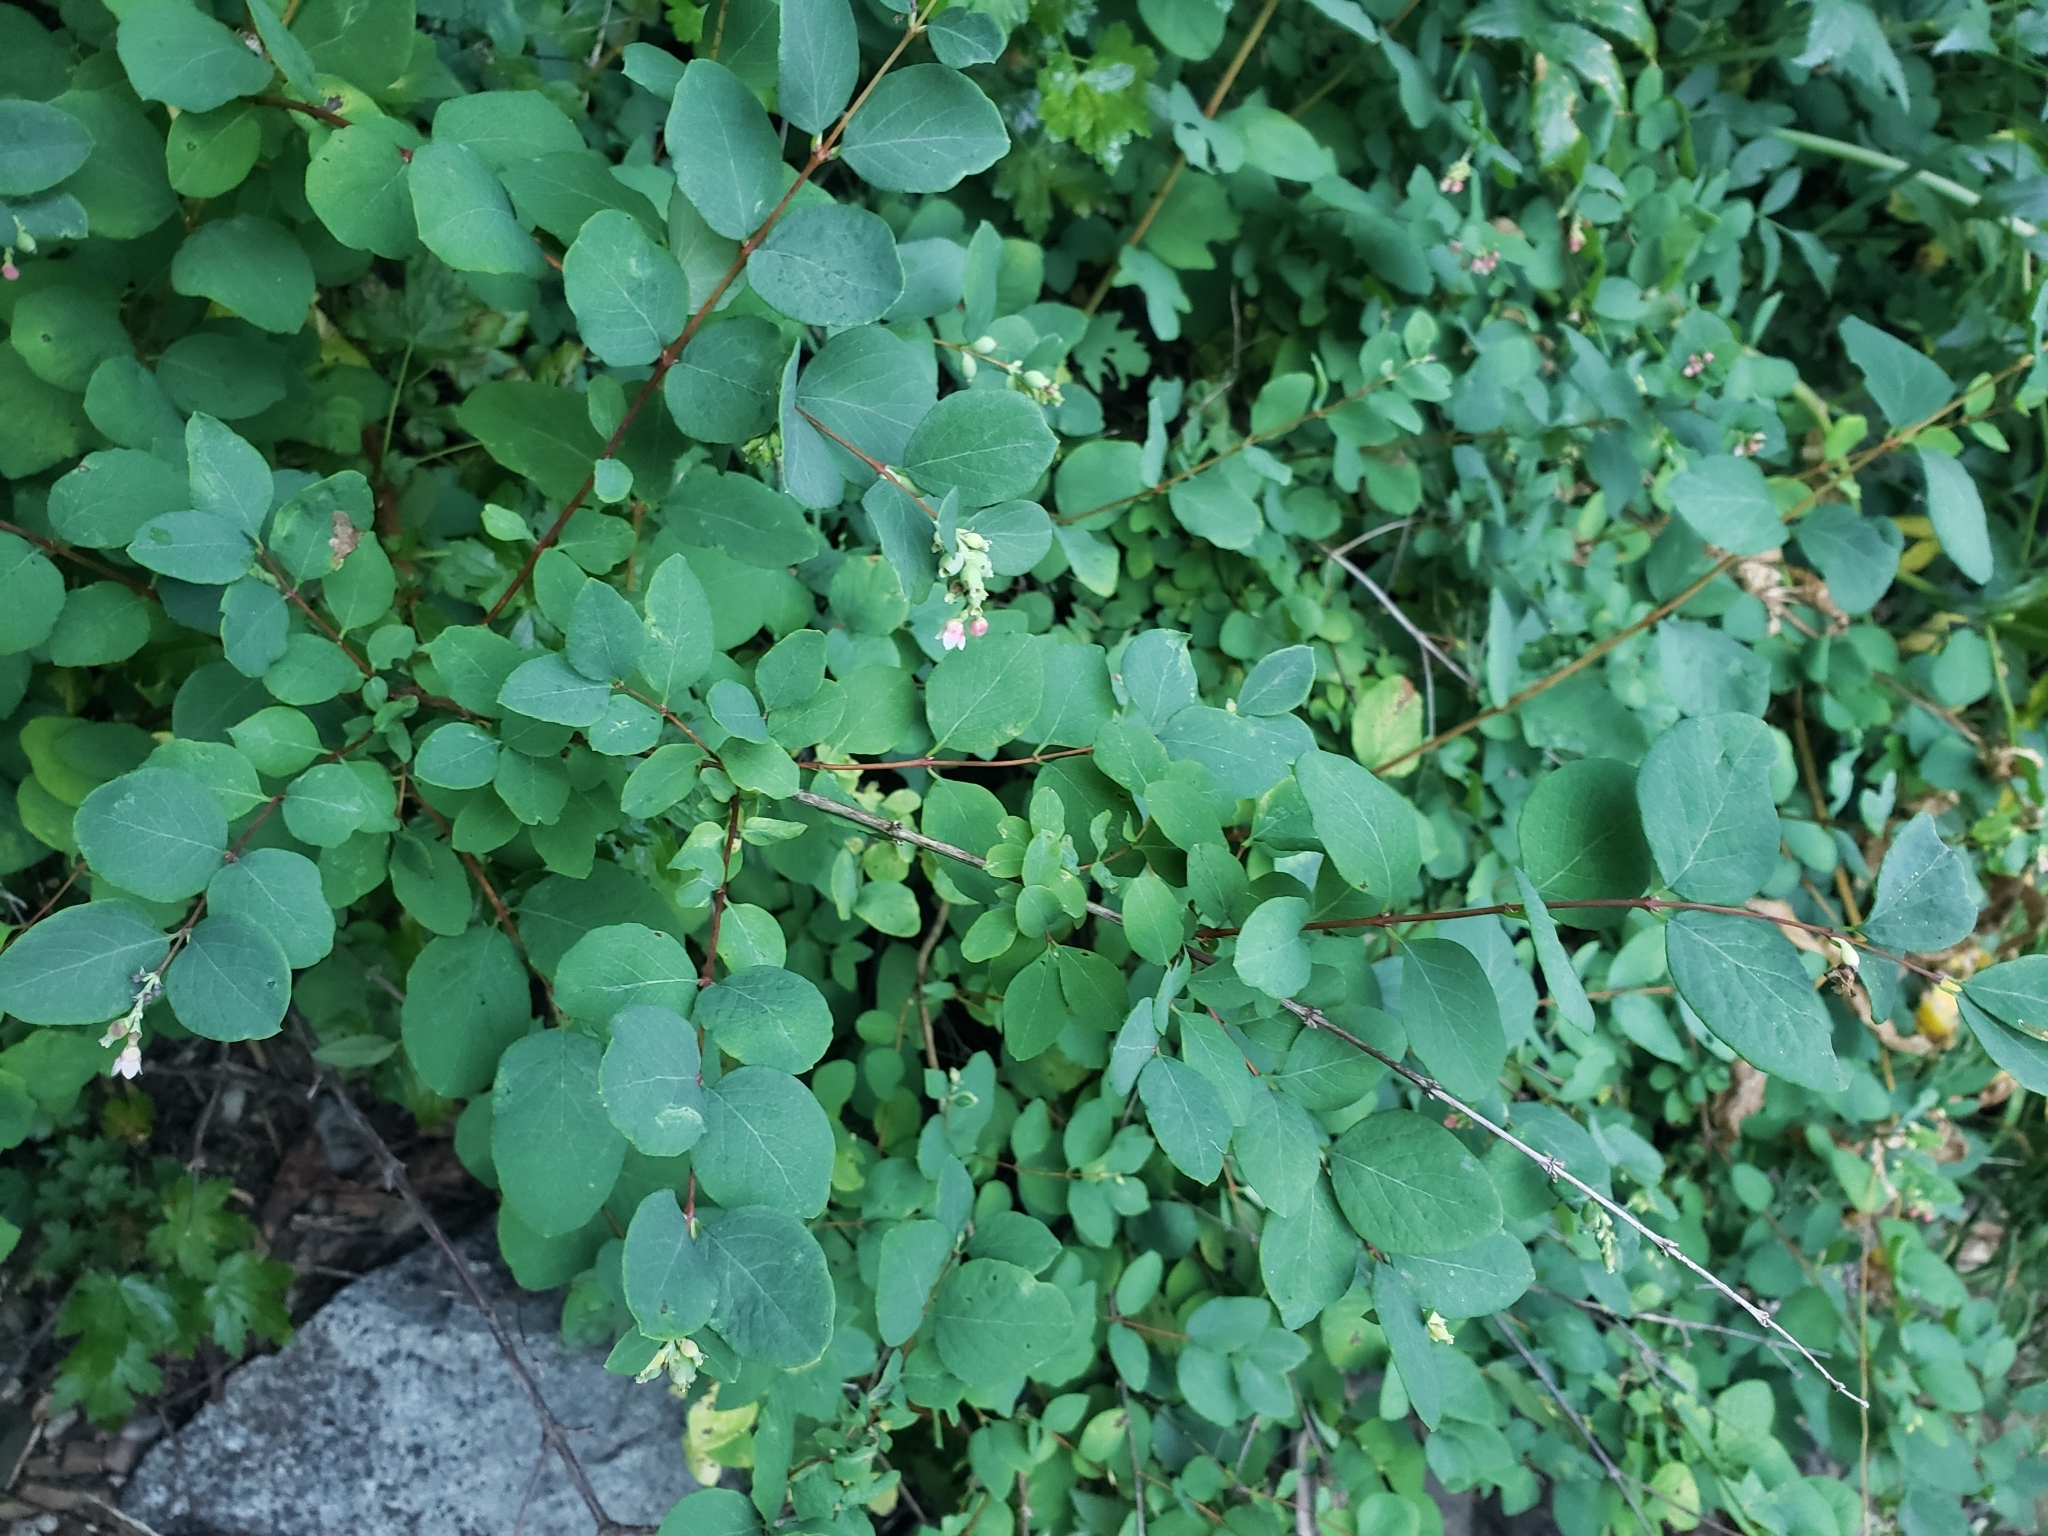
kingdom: Plantae
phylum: Tracheophyta
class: Magnoliopsida
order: Dipsacales
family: Caprifoliaceae
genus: Symphoricarpos
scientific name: Symphoricarpos hesperius
